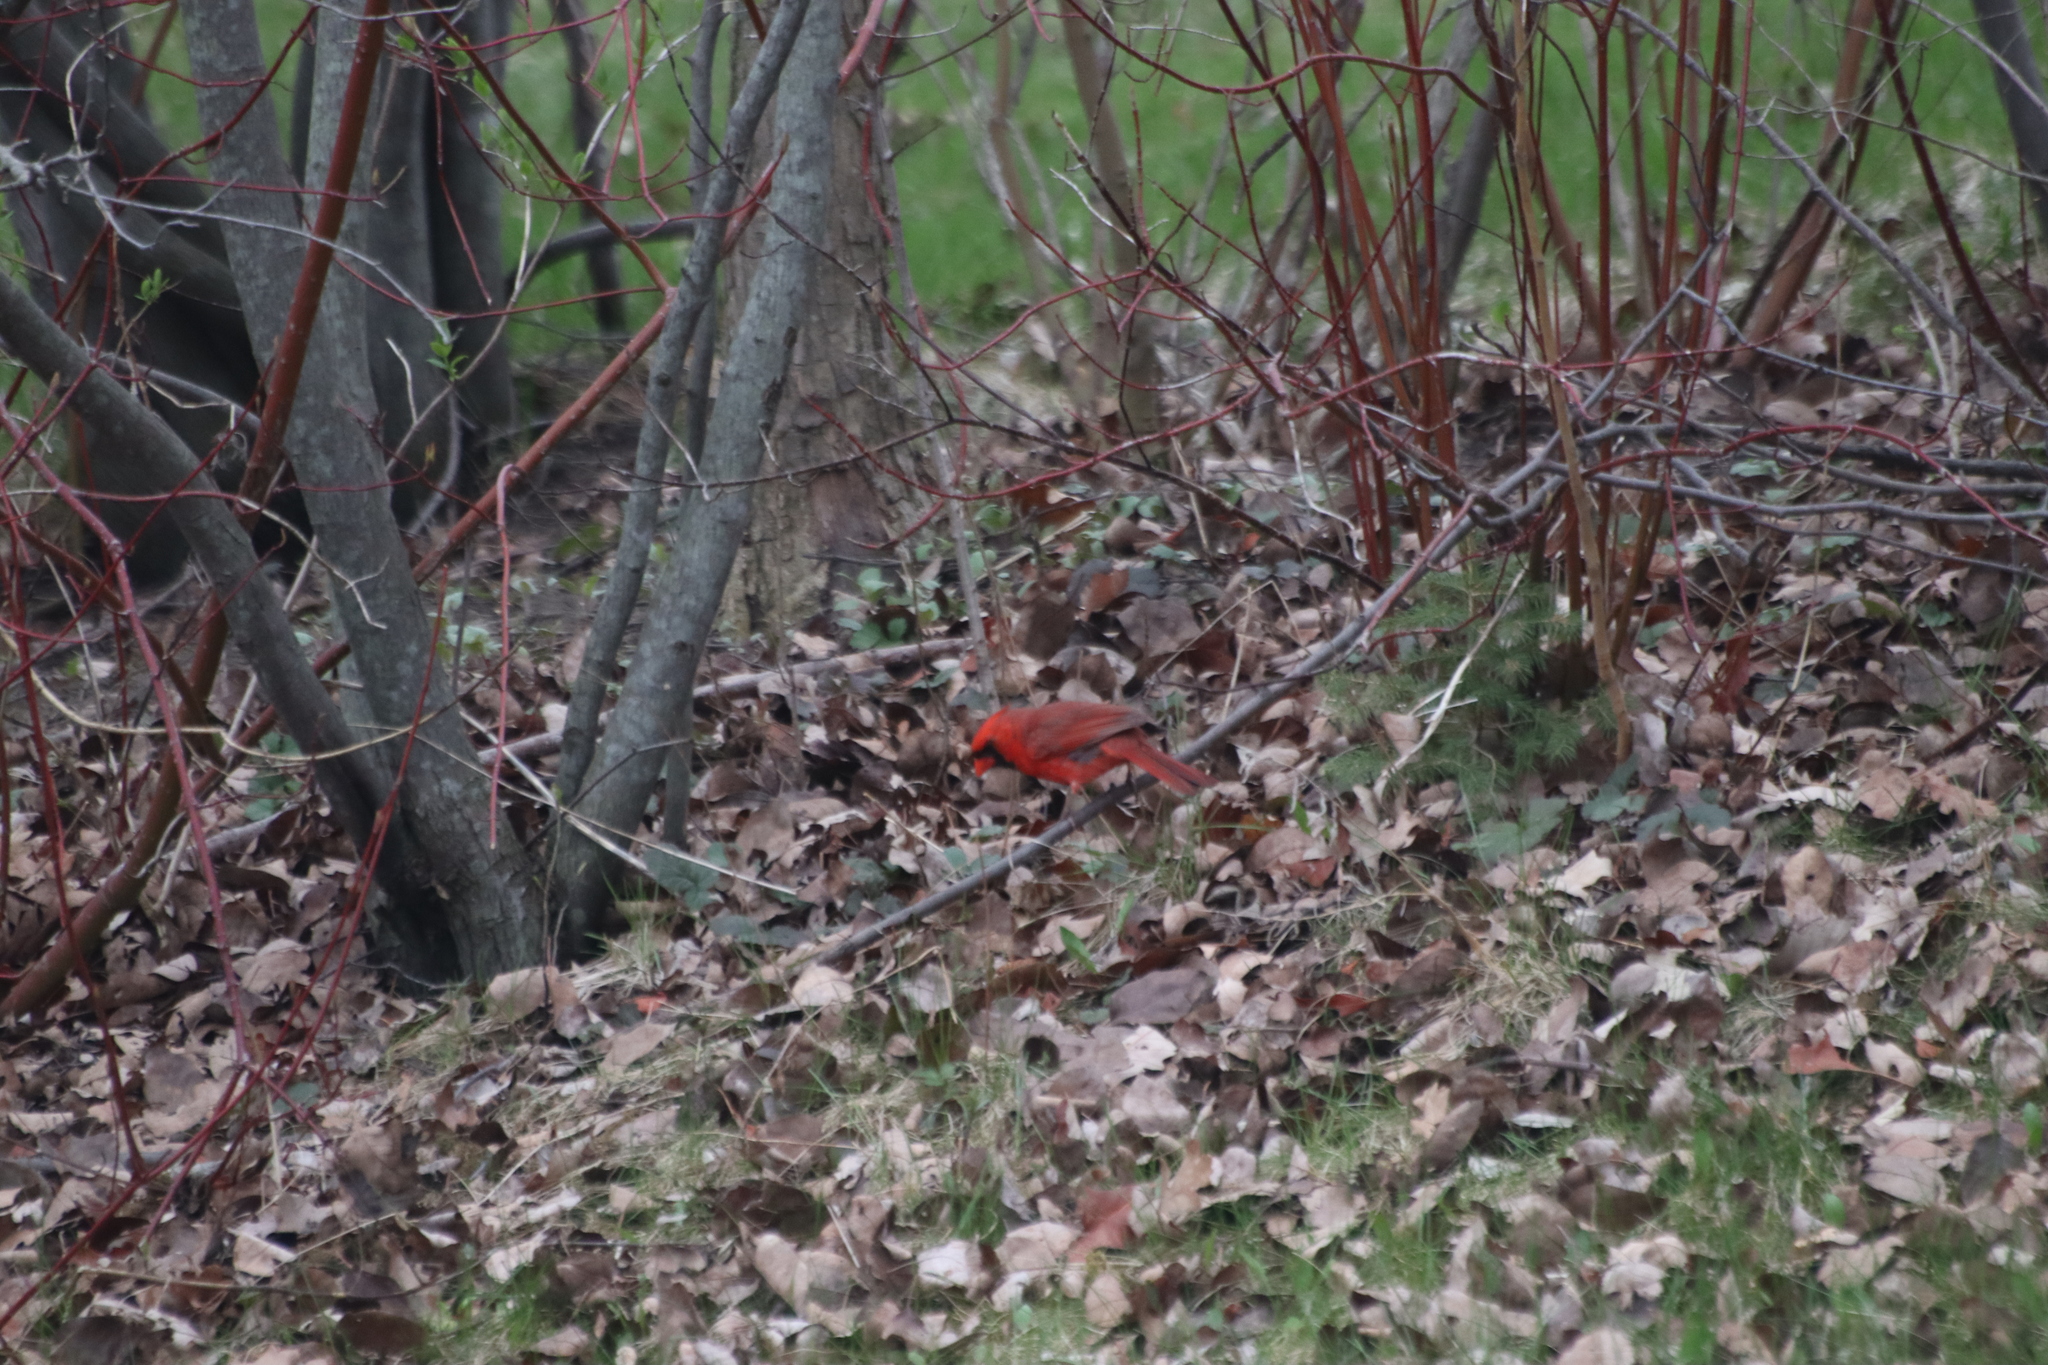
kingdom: Animalia
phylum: Chordata
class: Aves
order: Passeriformes
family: Cardinalidae
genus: Cardinalis
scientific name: Cardinalis cardinalis
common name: Northern cardinal
